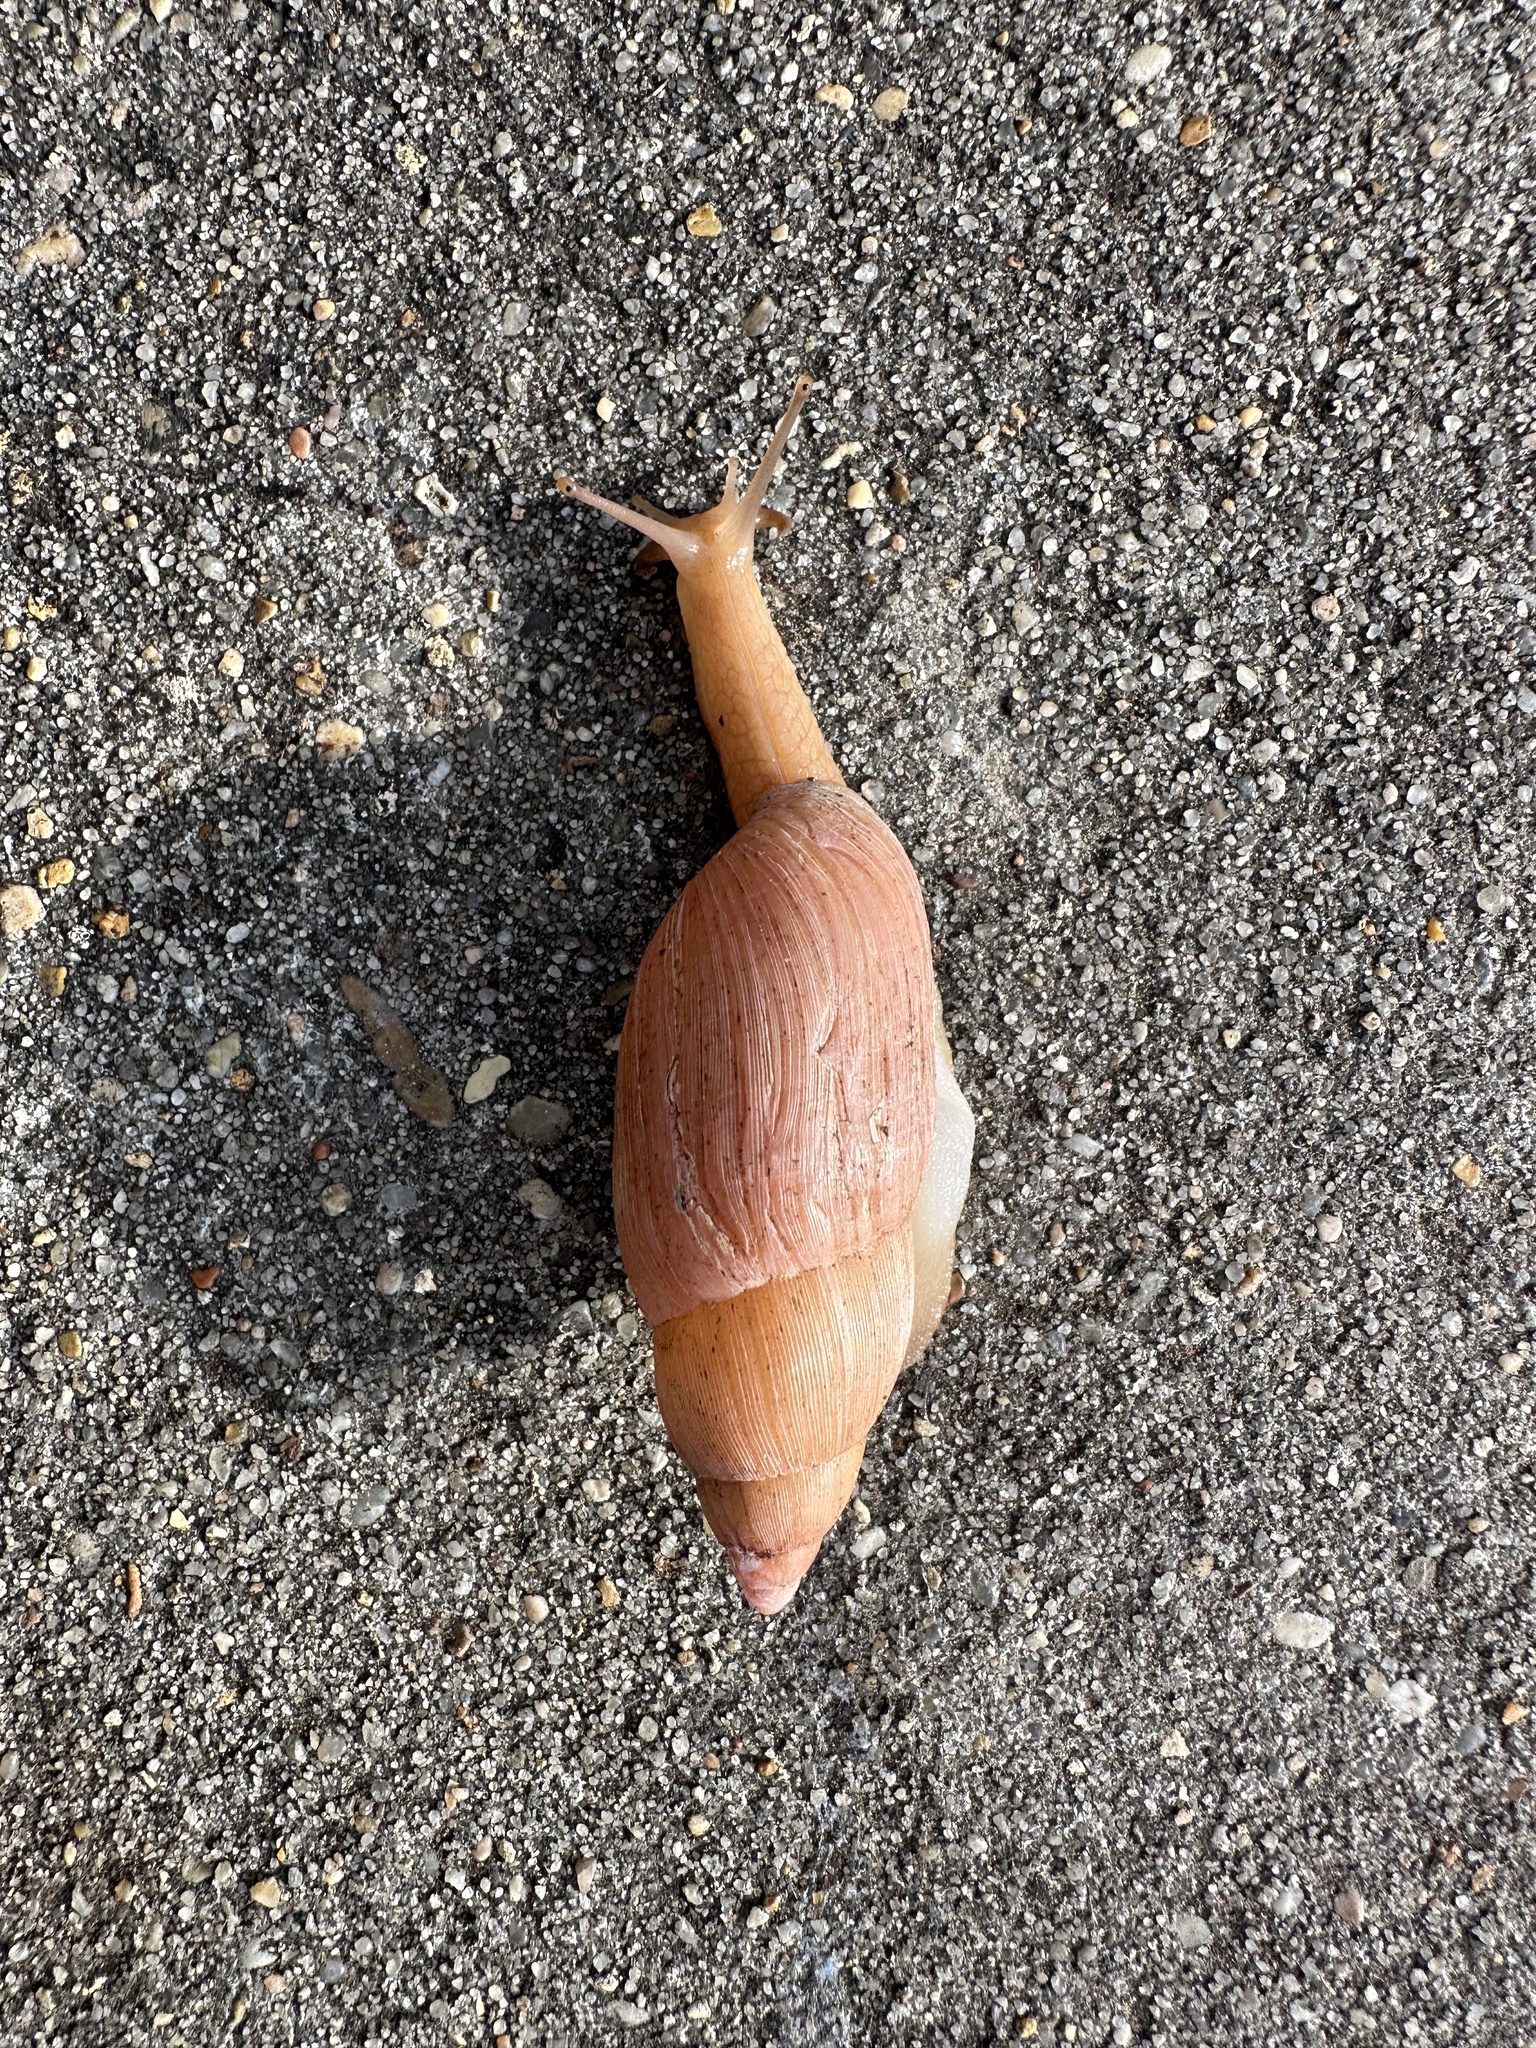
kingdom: Animalia
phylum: Mollusca
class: Gastropoda
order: Stylommatophora
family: Spiraxidae
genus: Euglandina
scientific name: Euglandina rosea
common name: Rosy wolfsnail
